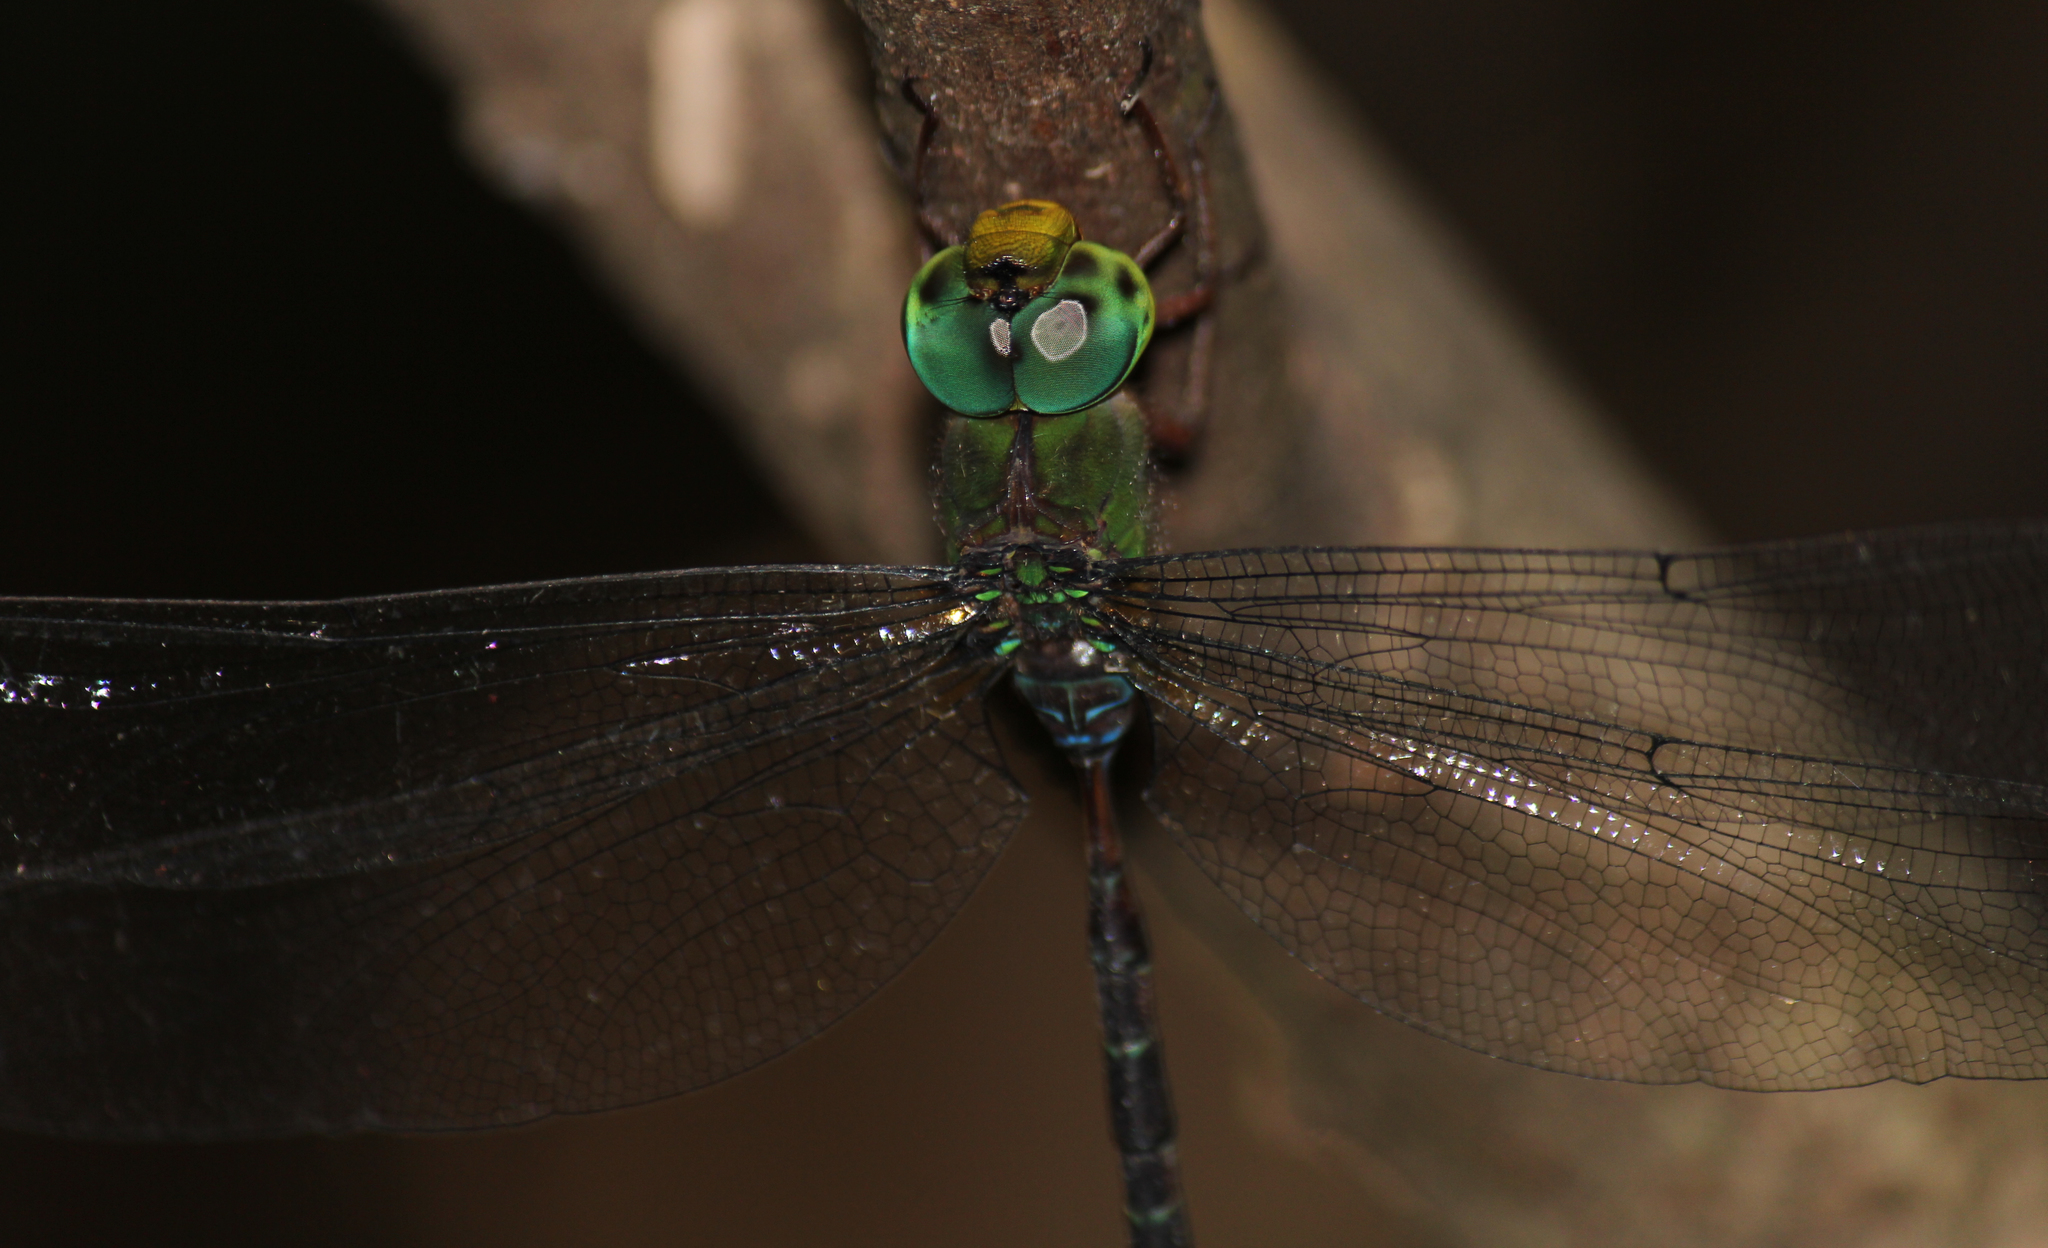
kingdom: Animalia
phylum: Arthropoda
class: Insecta
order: Odonata
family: Aeshnidae
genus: Gynacantha
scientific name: Gynacantha usambarica
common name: Eastern duskhawker
